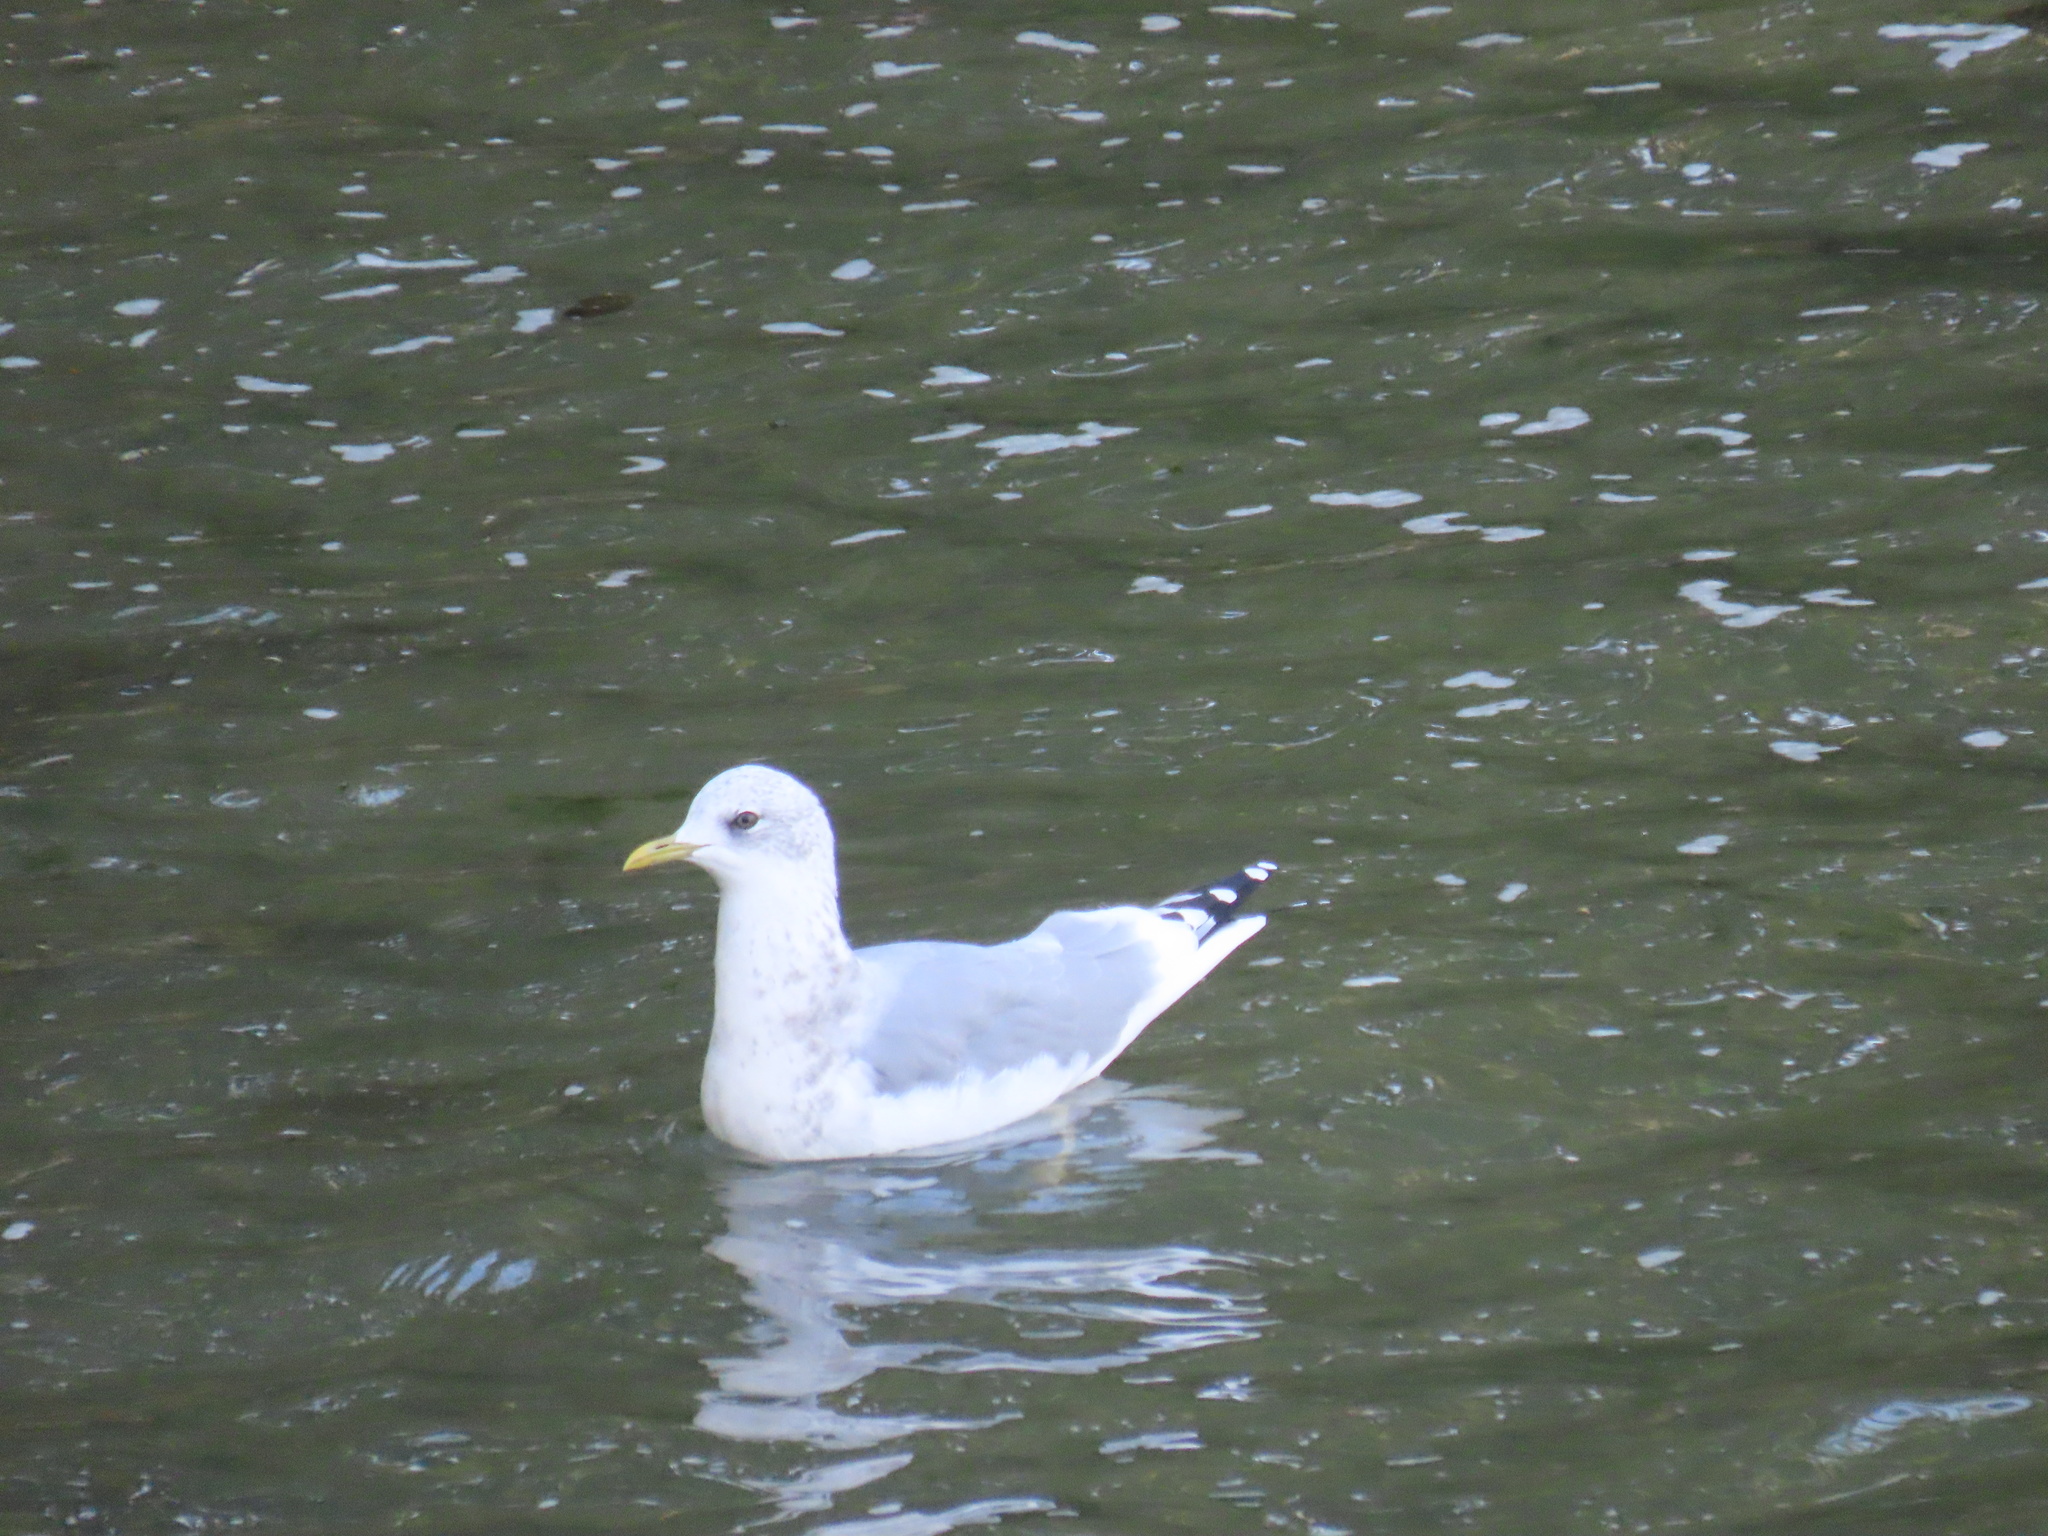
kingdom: Animalia
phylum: Chordata
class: Aves
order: Charadriiformes
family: Laridae
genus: Larus
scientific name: Larus brachyrhynchus
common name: Short-billed gull
